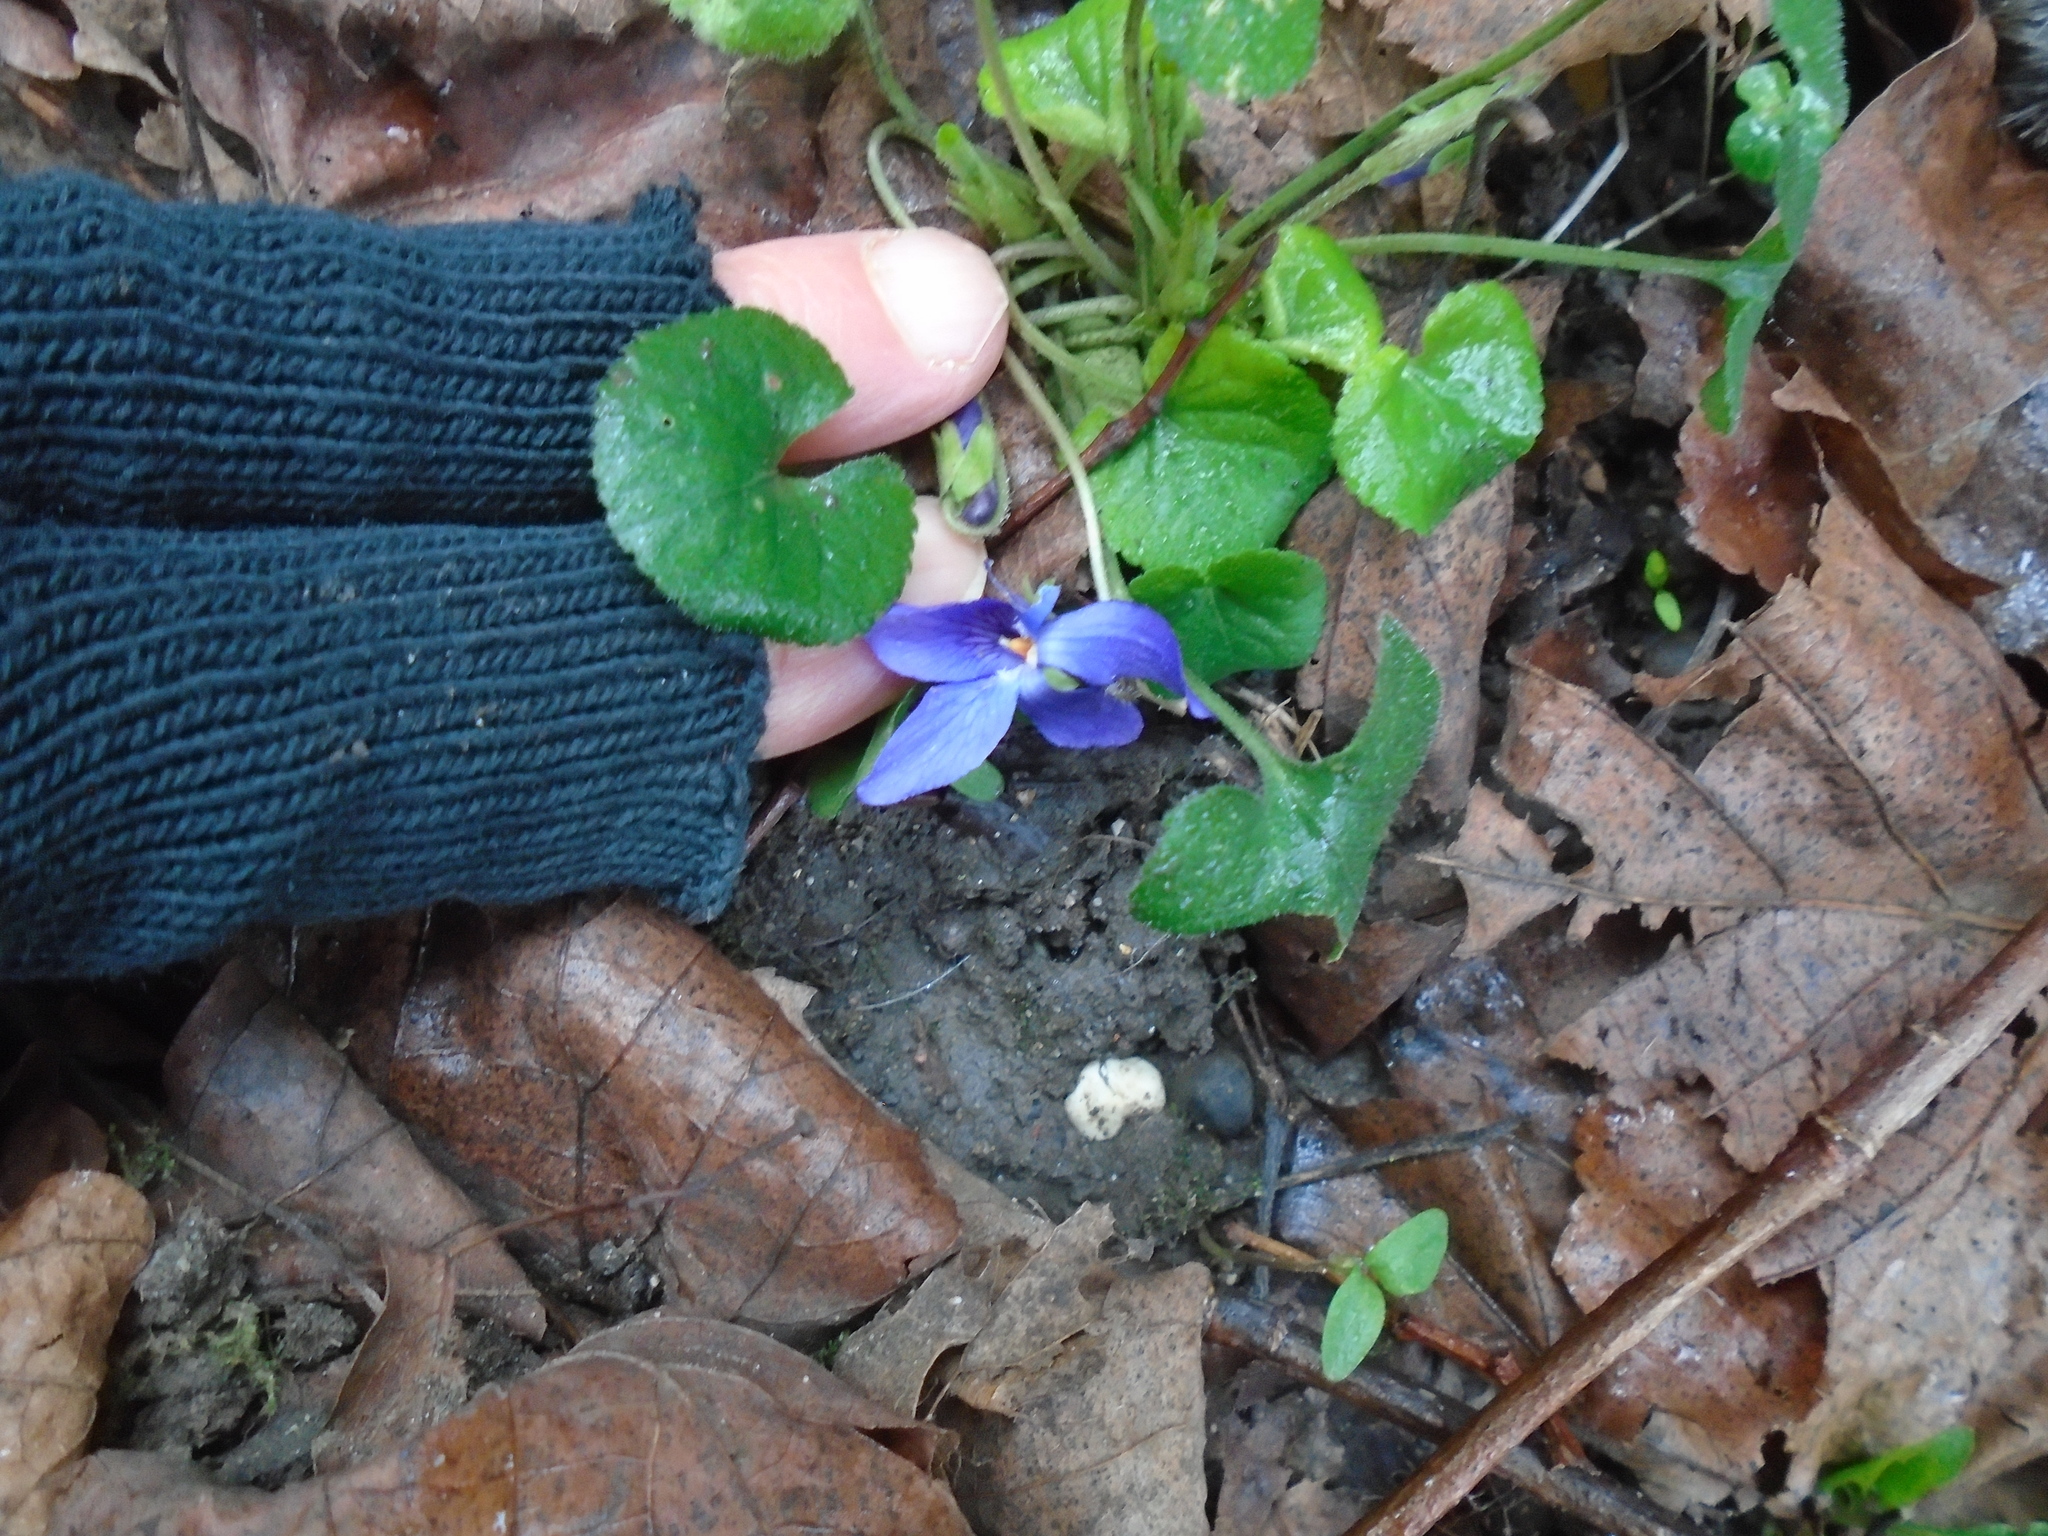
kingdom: Plantae
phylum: Tracheophyta
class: Magnoliopsida
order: Malpighiales
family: Violaceae
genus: Viola
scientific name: Viola odorata
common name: Sweet violet
